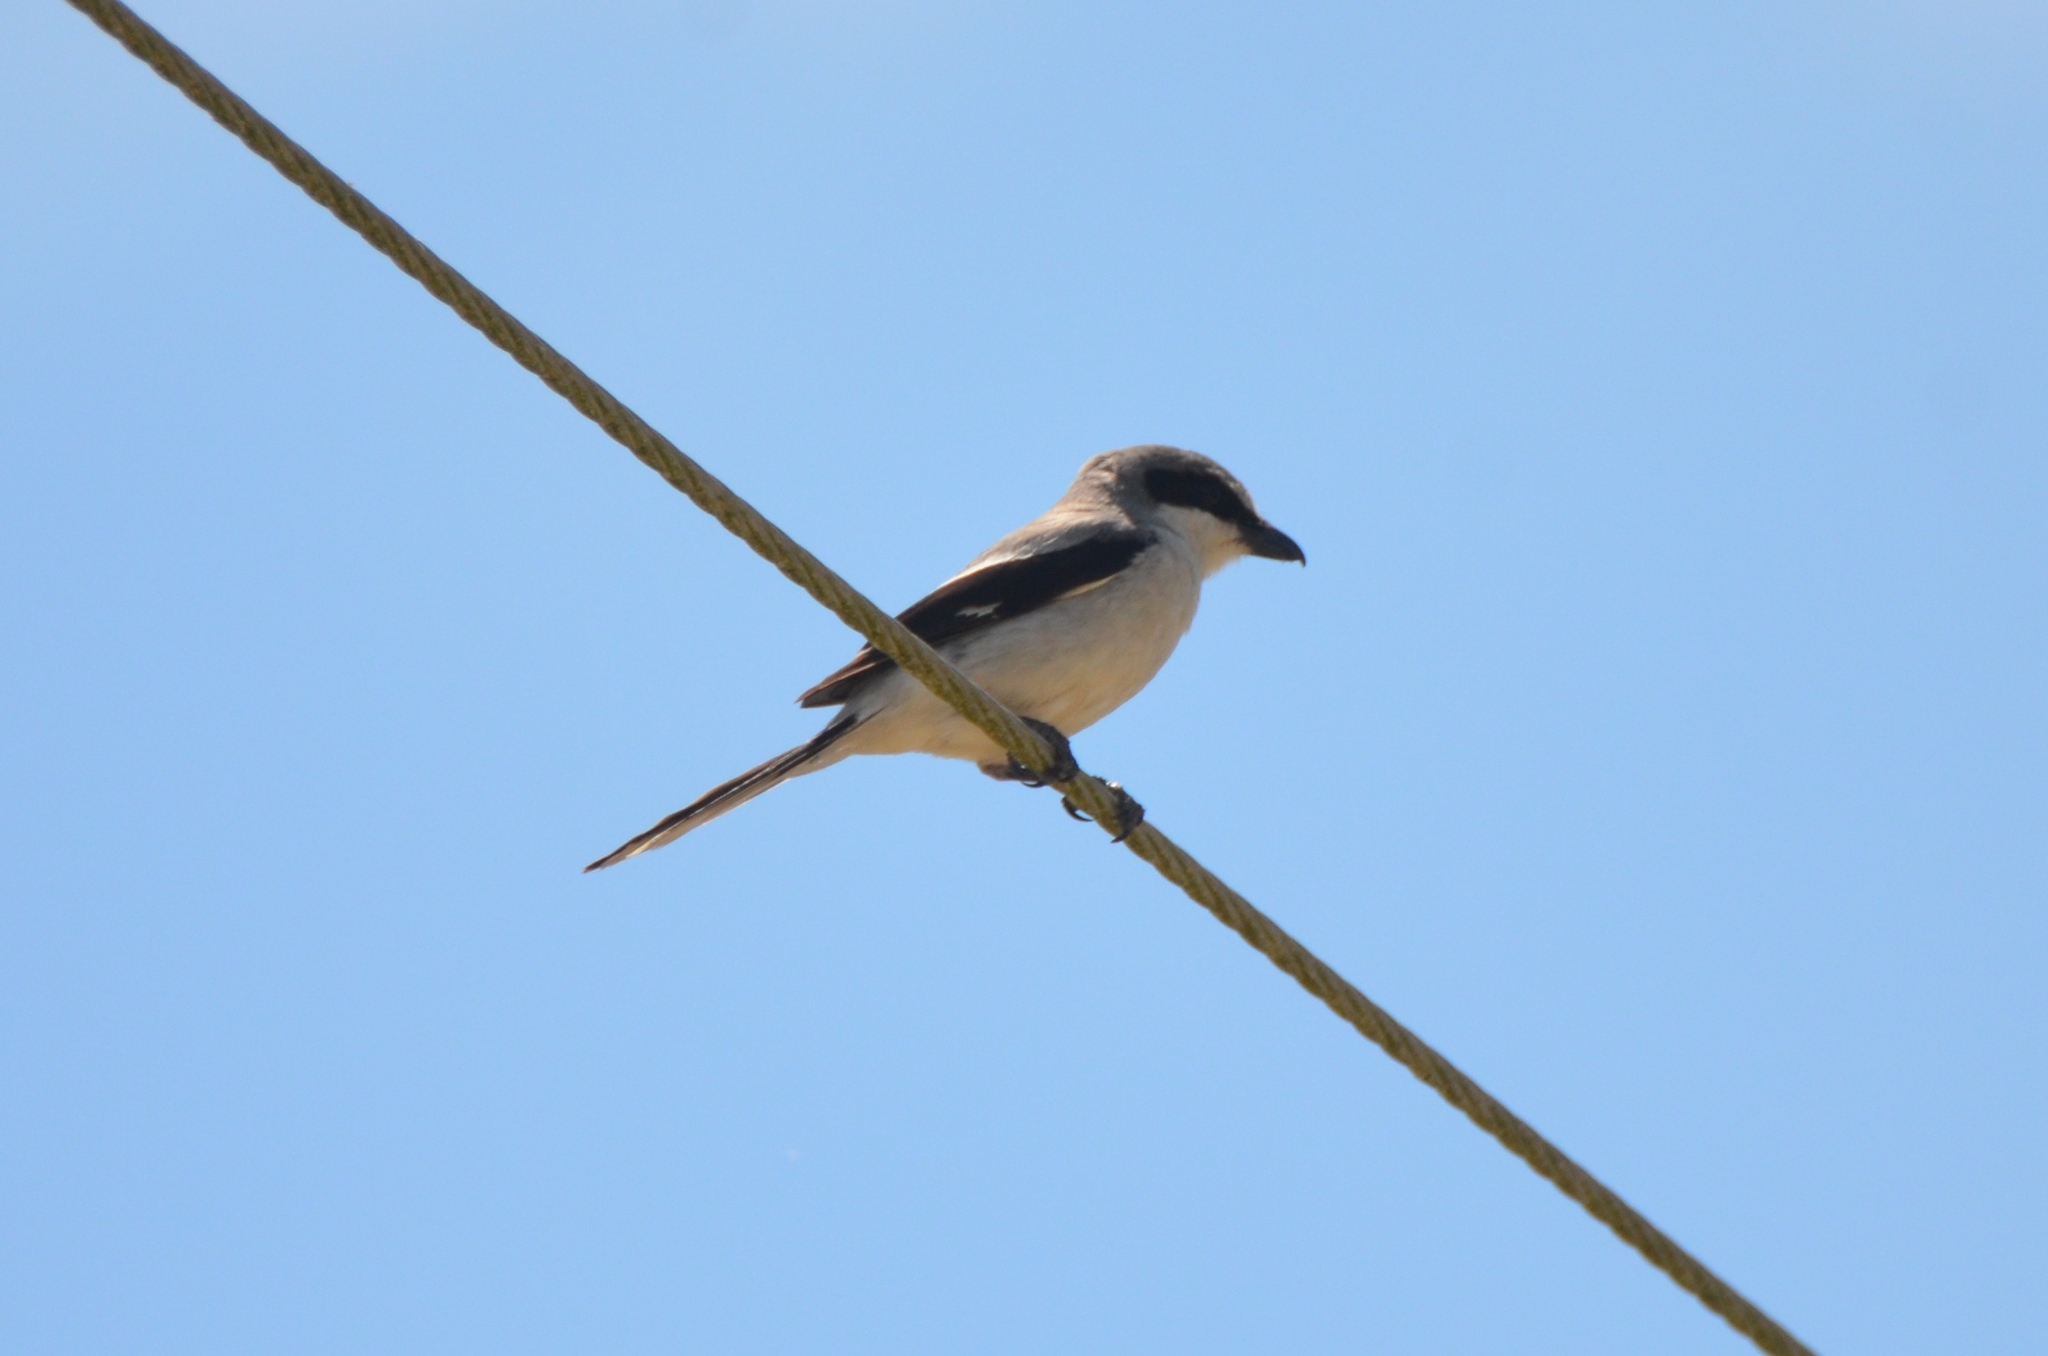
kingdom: Animalia
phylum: Chordata
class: Aves
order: Passeriformes
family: Laniidae
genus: Lanius
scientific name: Lanius ludovicianus
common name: Loggerhead shrike
